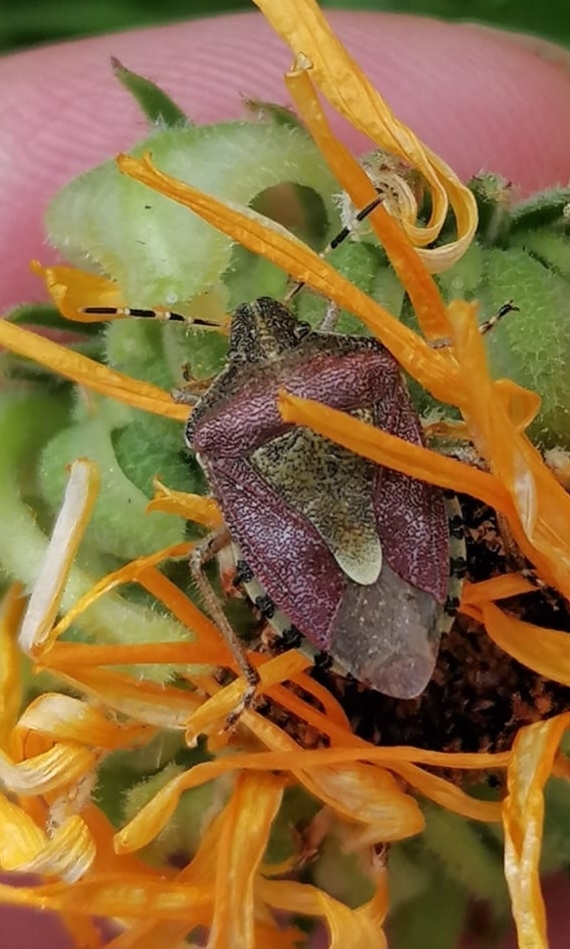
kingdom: Animalia
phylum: Arthropoda
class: Insecta
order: Hemiptera
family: Pentatomidae
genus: Dolycoris
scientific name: Dolycoris baccarum
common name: Sloe bug
